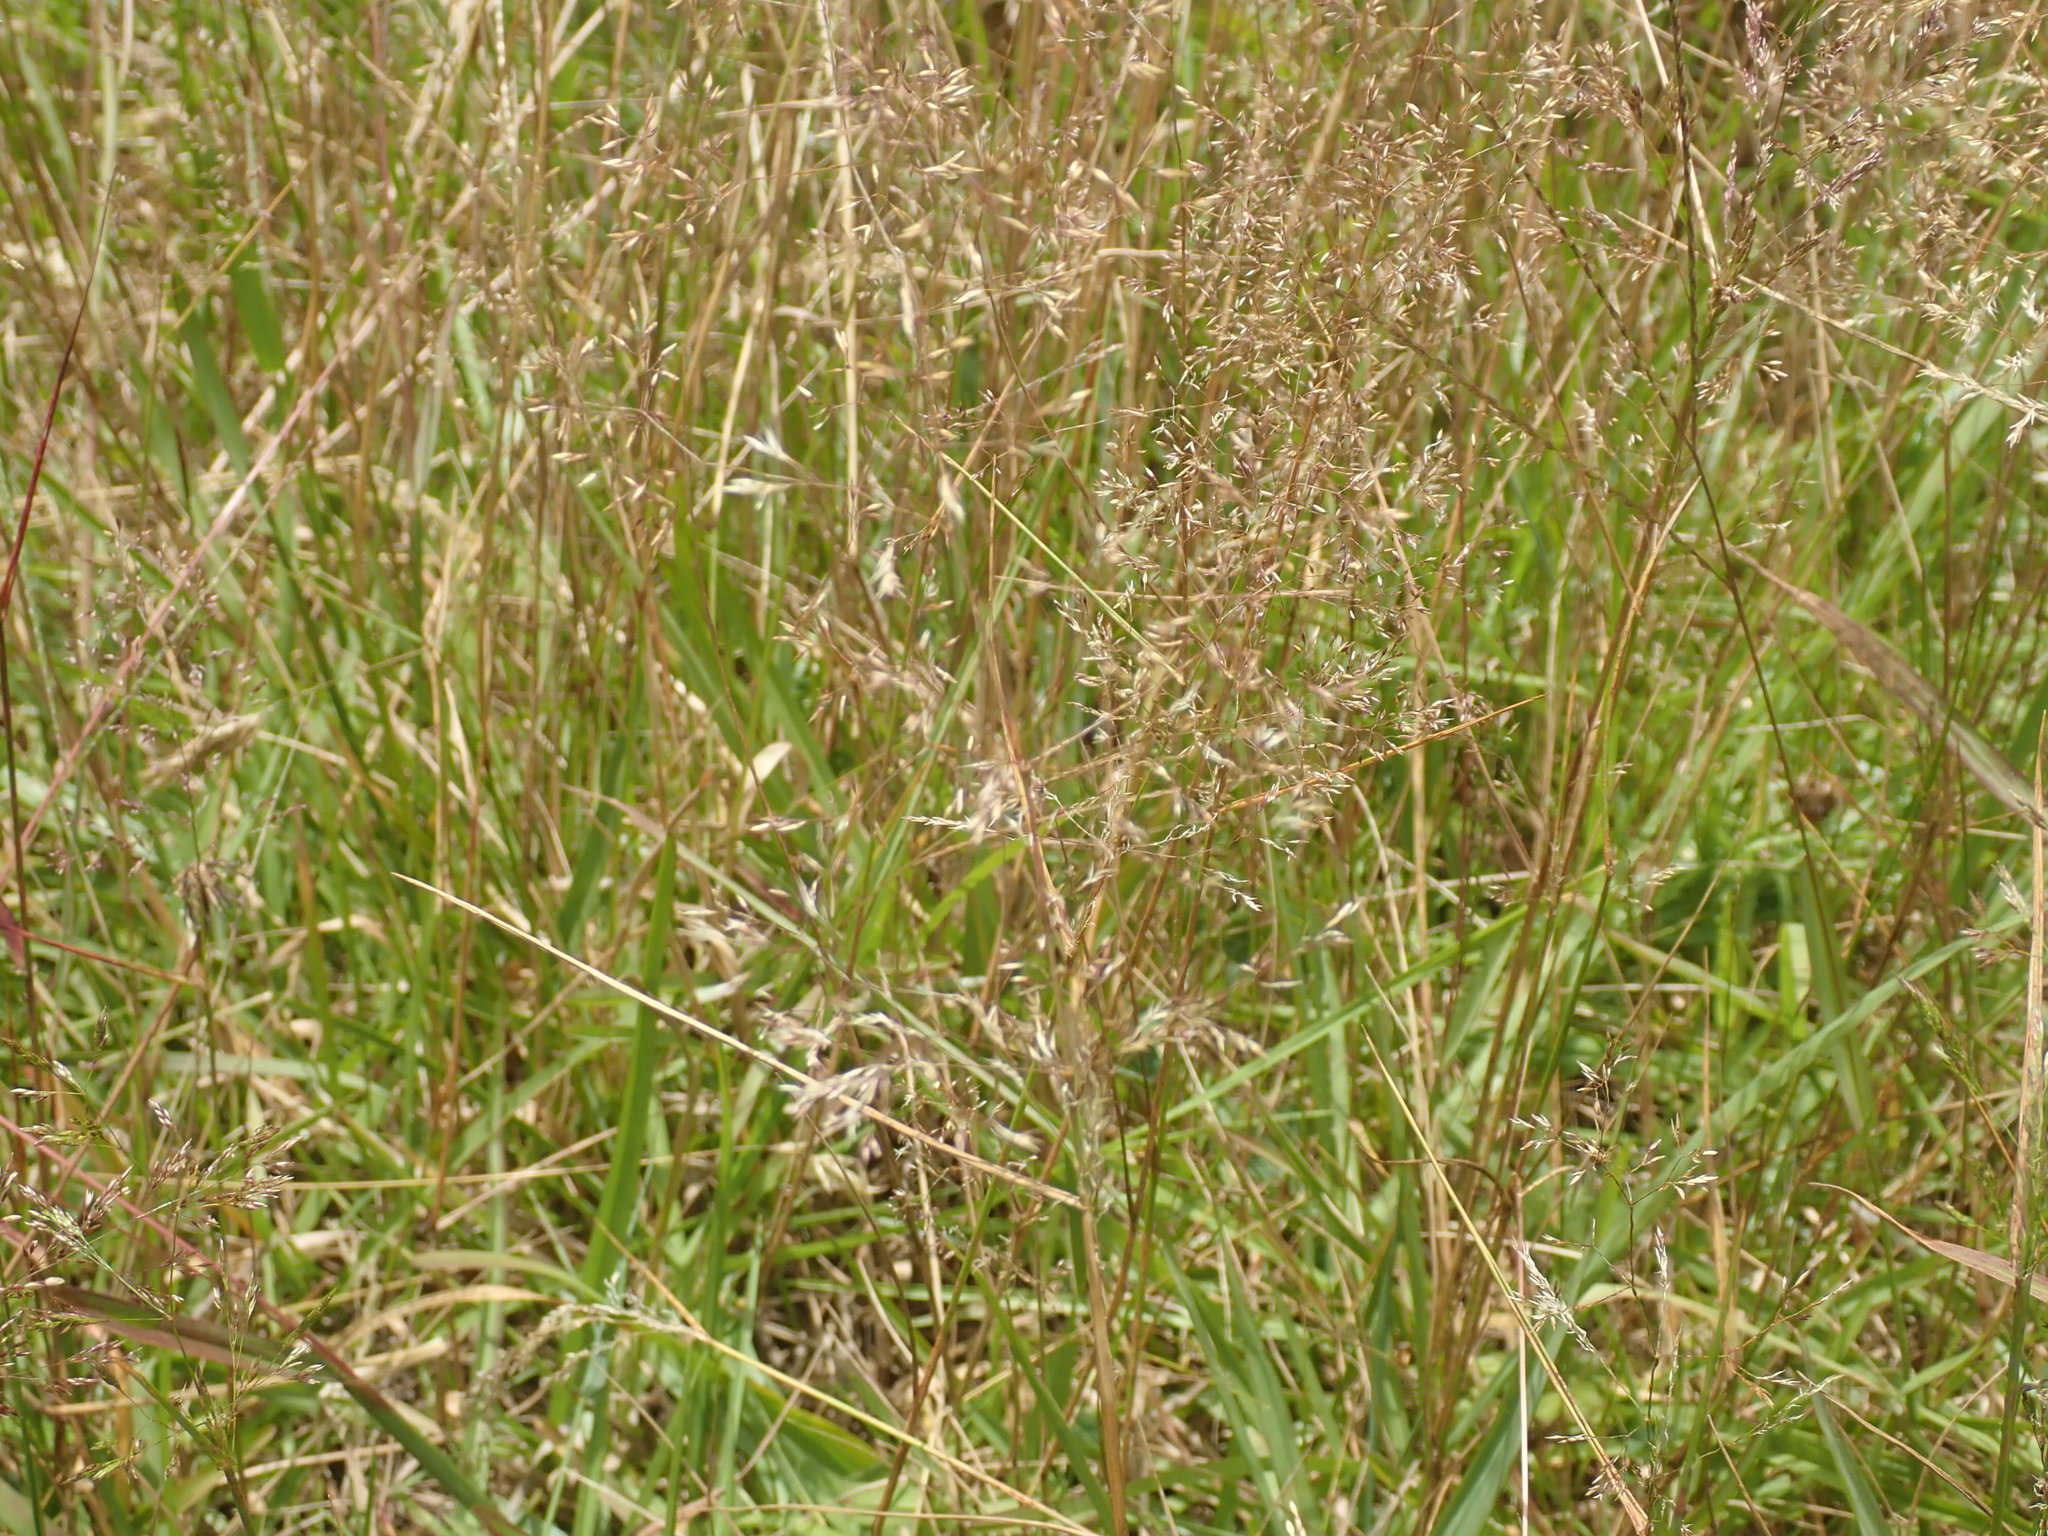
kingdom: Plantae
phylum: Tracheophyta
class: Liliopsida
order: Poales
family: Poaceae
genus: Agrostis
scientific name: Agrostis capillaris
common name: Colonial bentgrass
